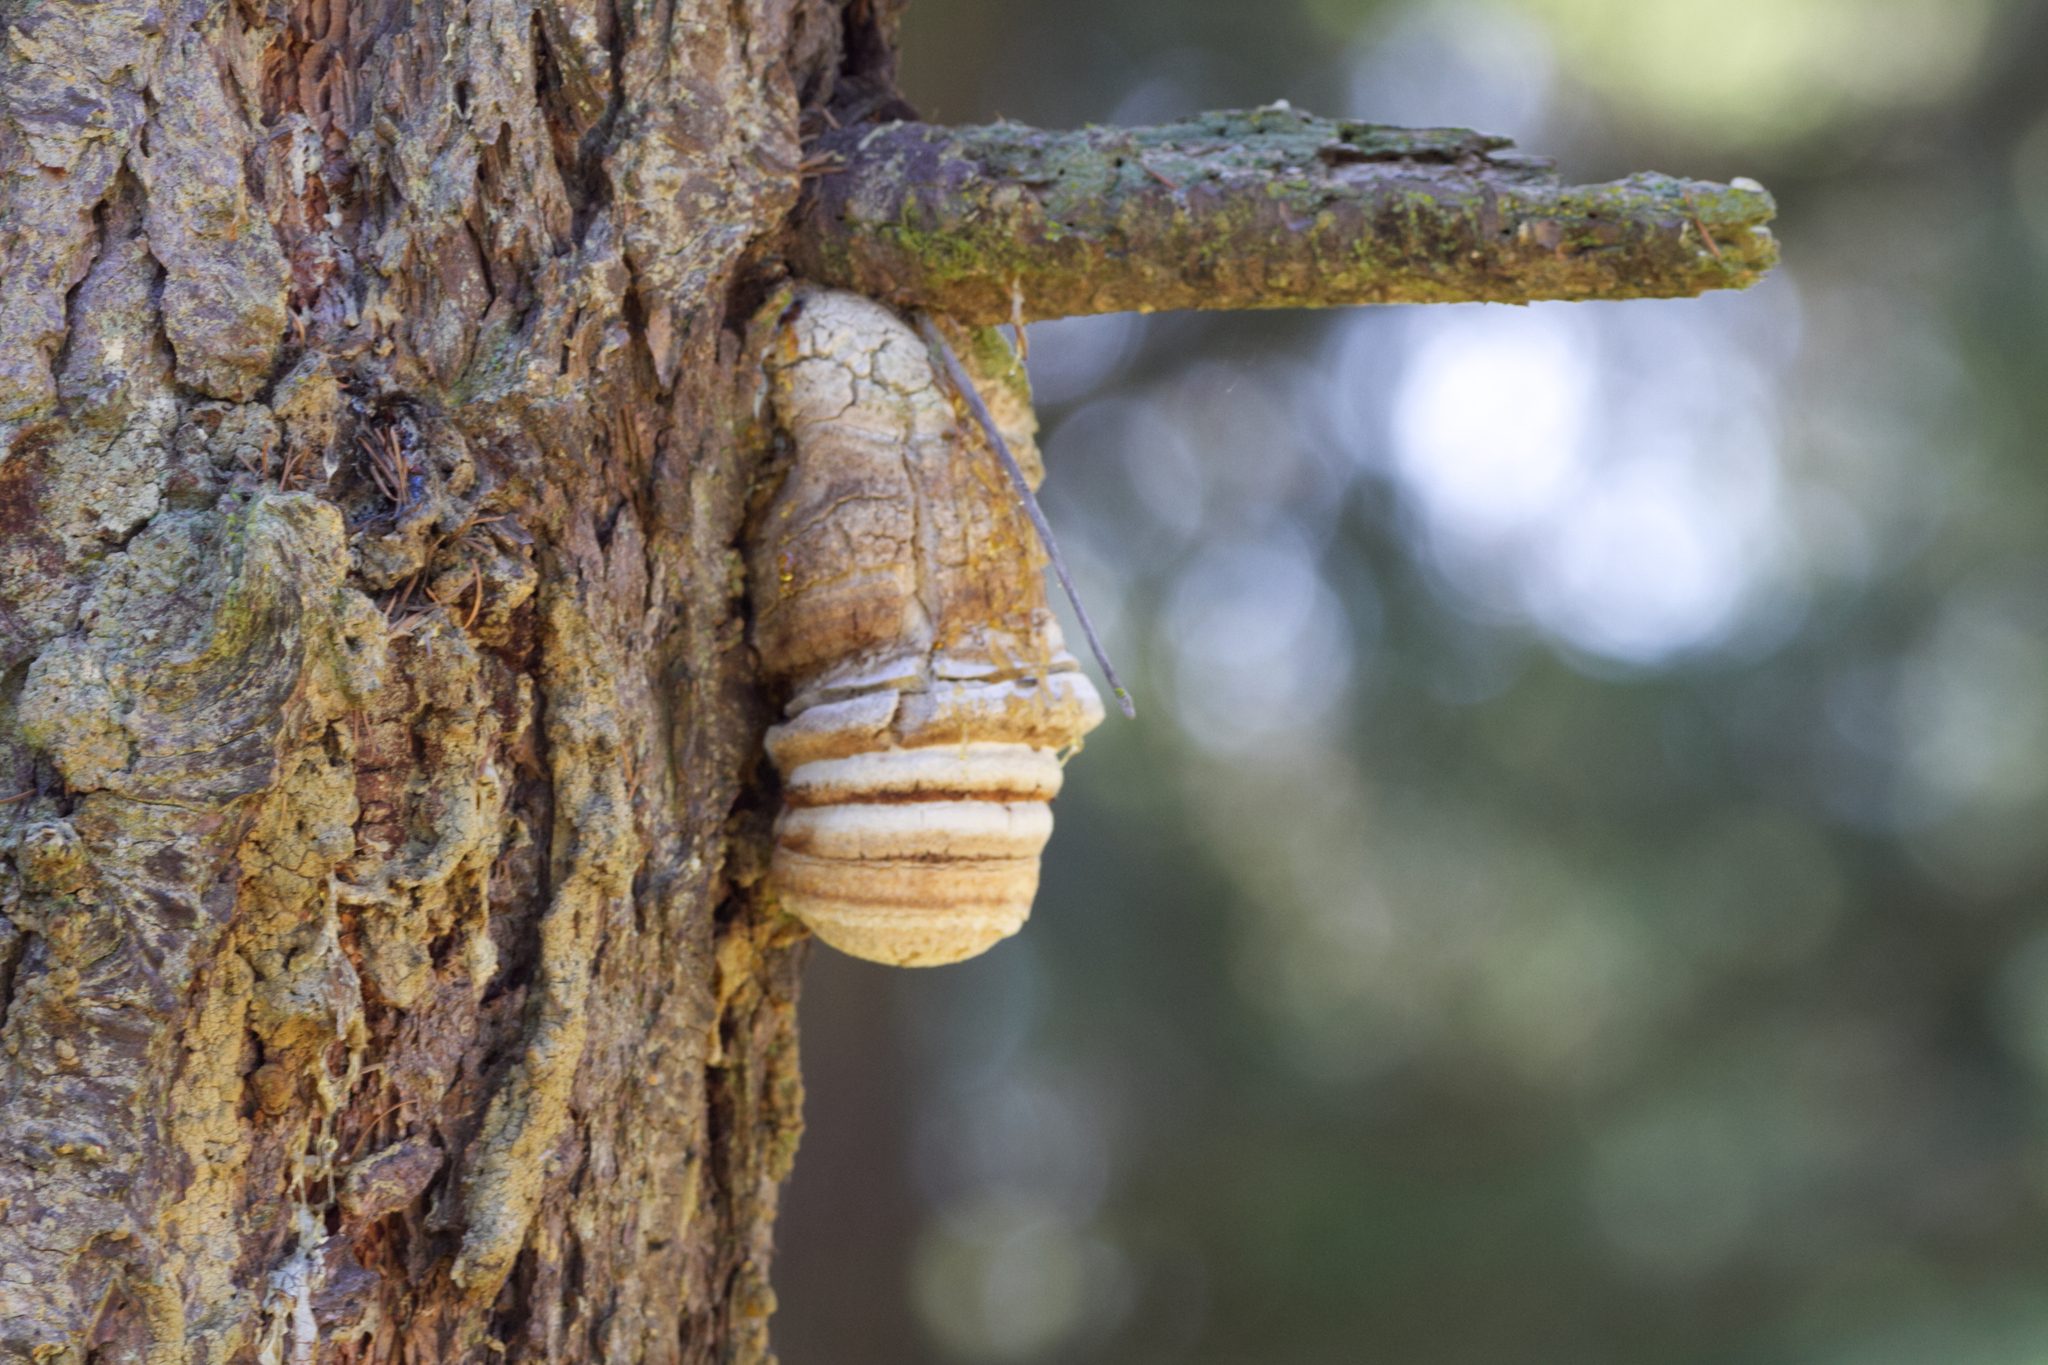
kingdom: Fungi
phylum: Basidiomycota
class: Agaricomycetes
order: Polyporales
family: Fomitopsidaceae
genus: Fomitopsis
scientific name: Fomitopsis officinalis
